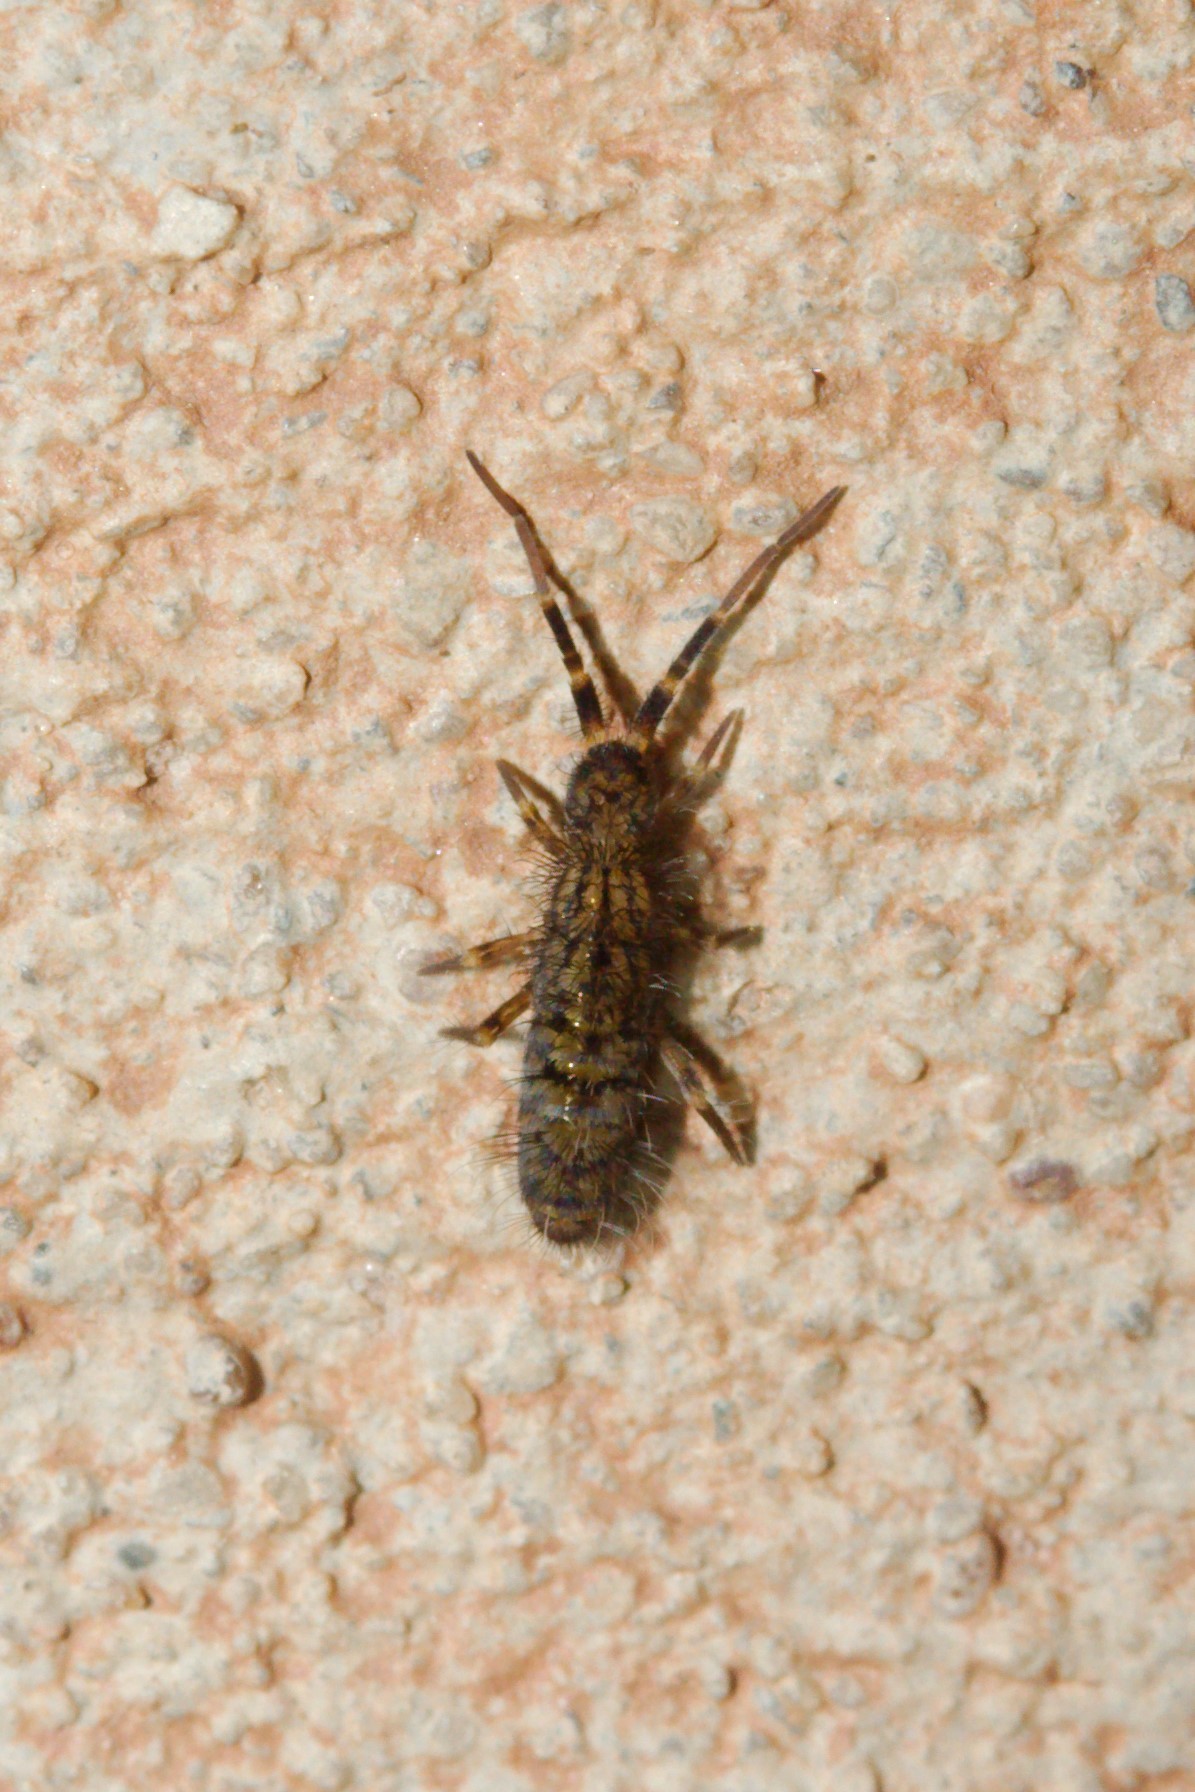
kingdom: Animalia
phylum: Arthropoda
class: Collembola
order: Entomobryomorpha
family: Orchesellidae
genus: Orchesella
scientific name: Orchesella villosa
